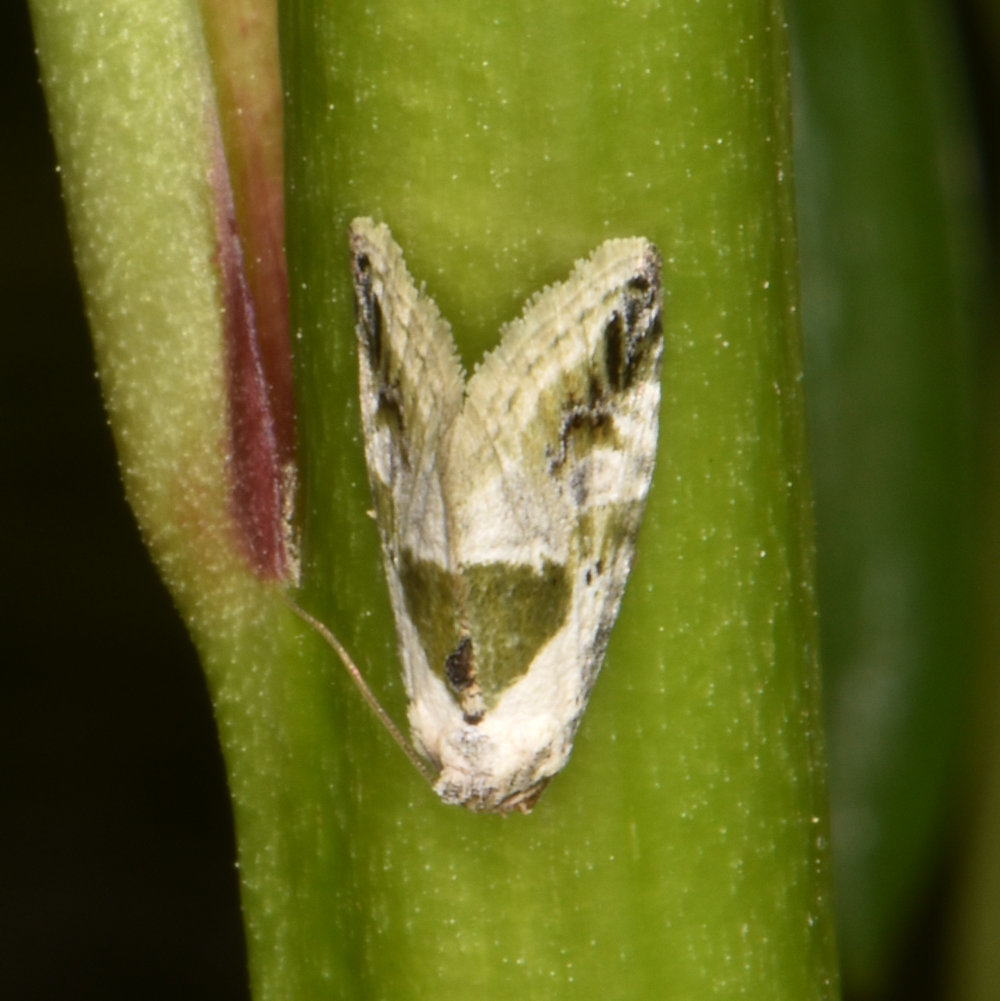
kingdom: Animalia
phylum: Arthropoda
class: Insecta
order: Lepidoptera
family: Noctuidae
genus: Maliattha
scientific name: Maliattha synochitis
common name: Black-dotted glyph
